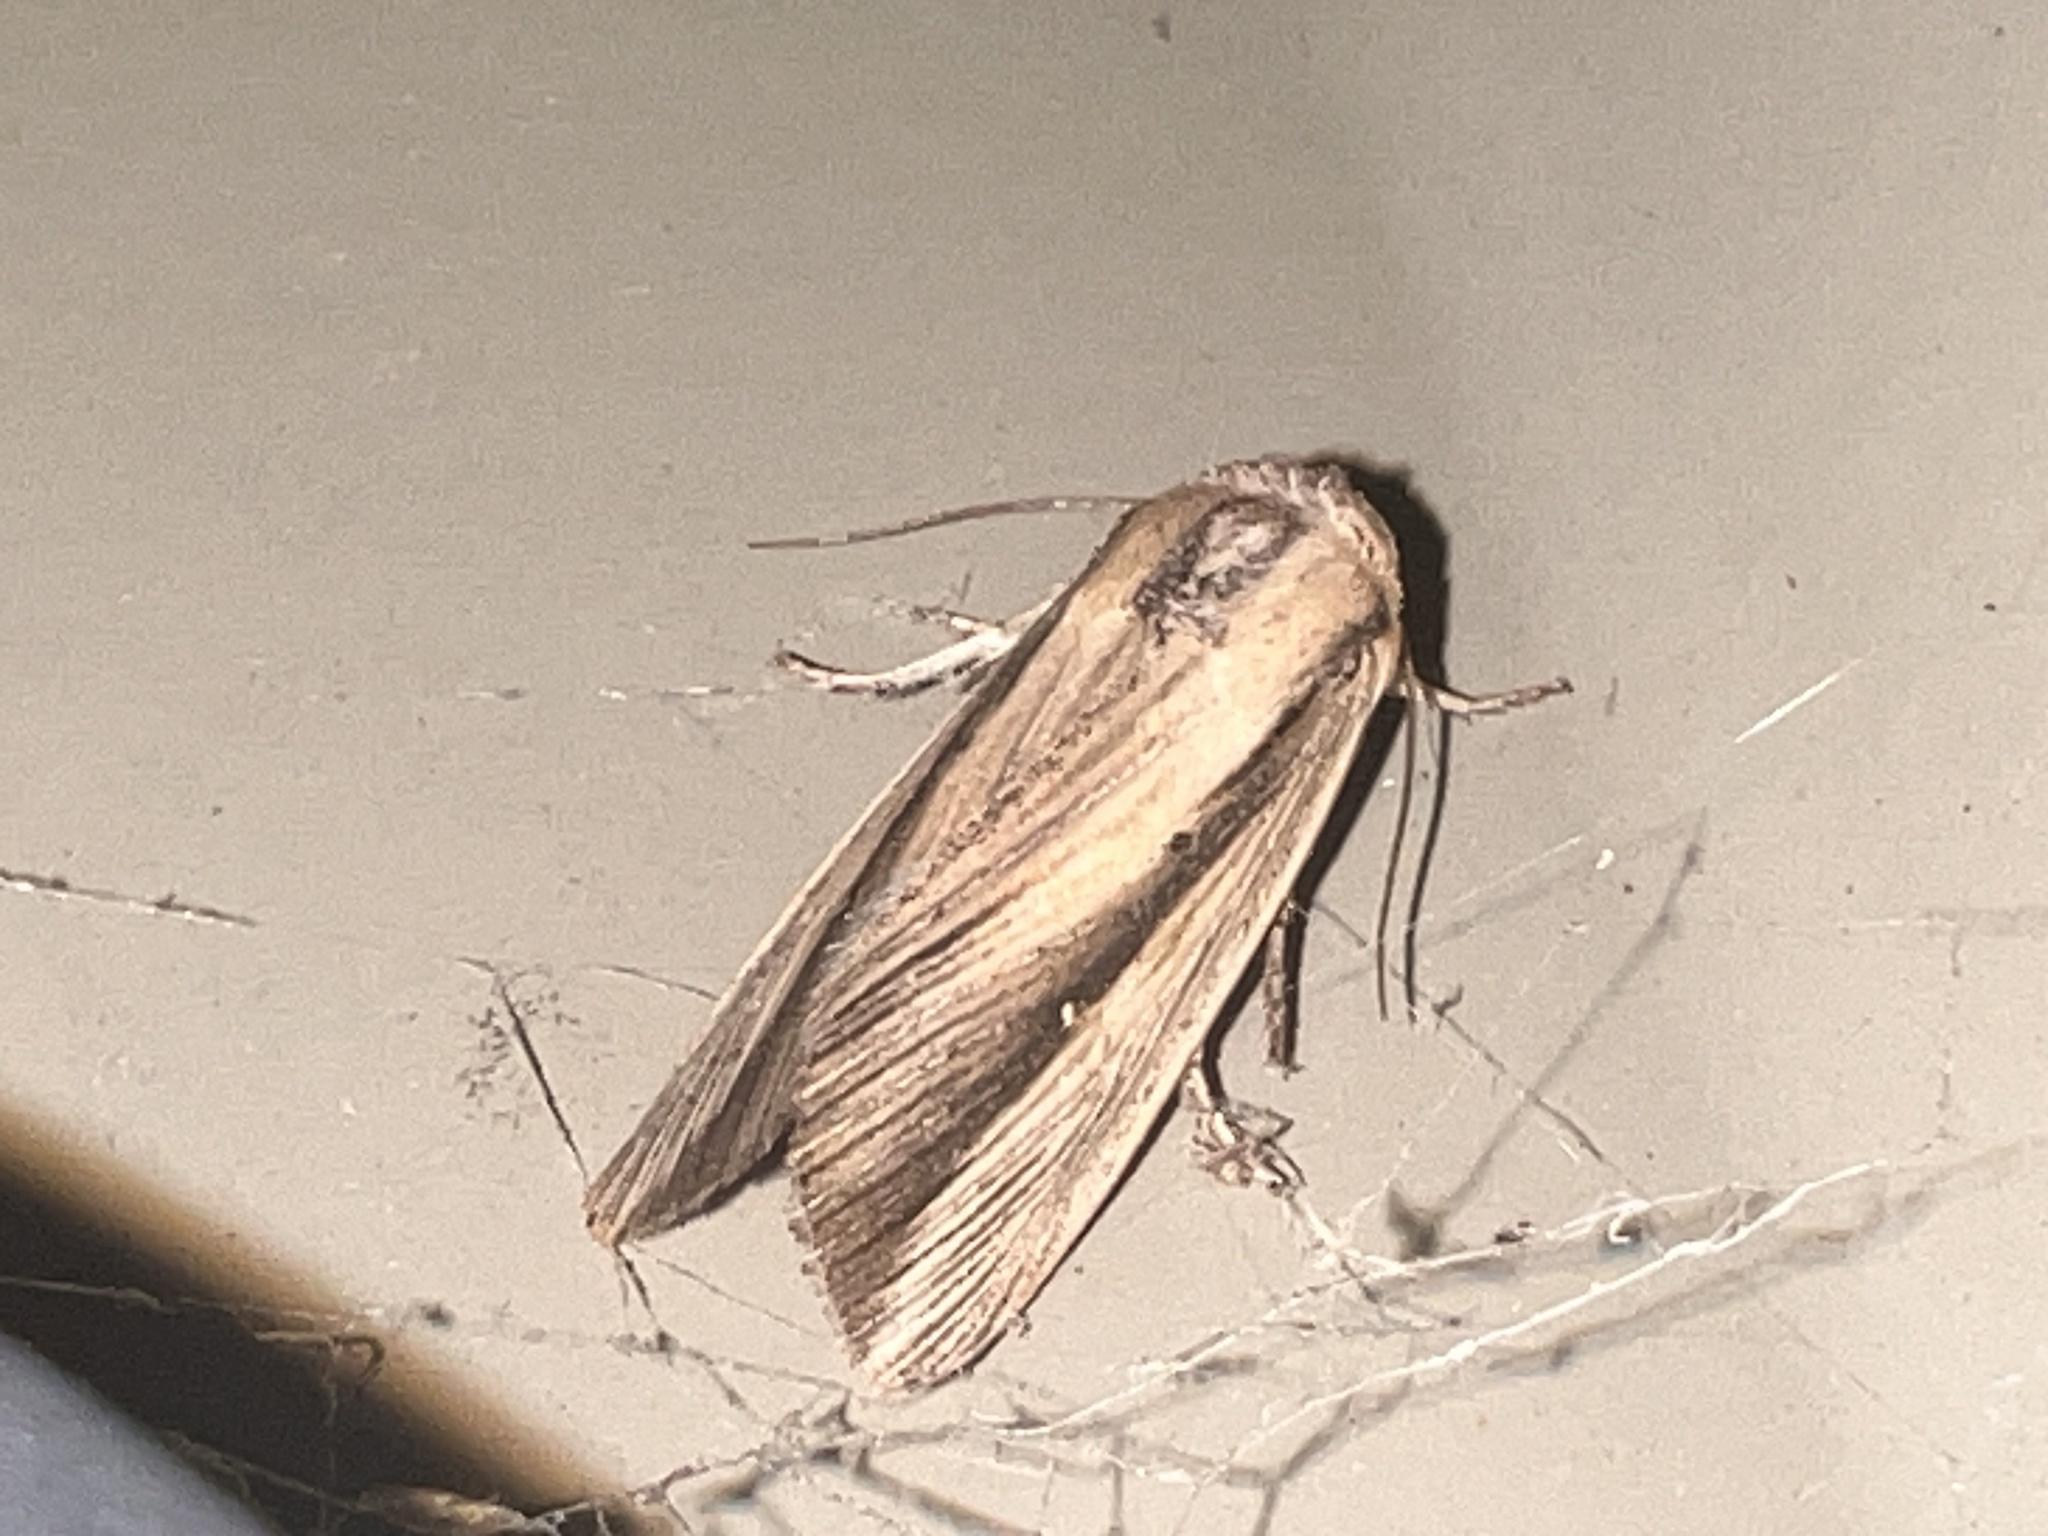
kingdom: Animalia
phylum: Arthropoda
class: Insecta
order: Lepidoptera
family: Noctuidae
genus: Leucania
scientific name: Leucania stenographa
